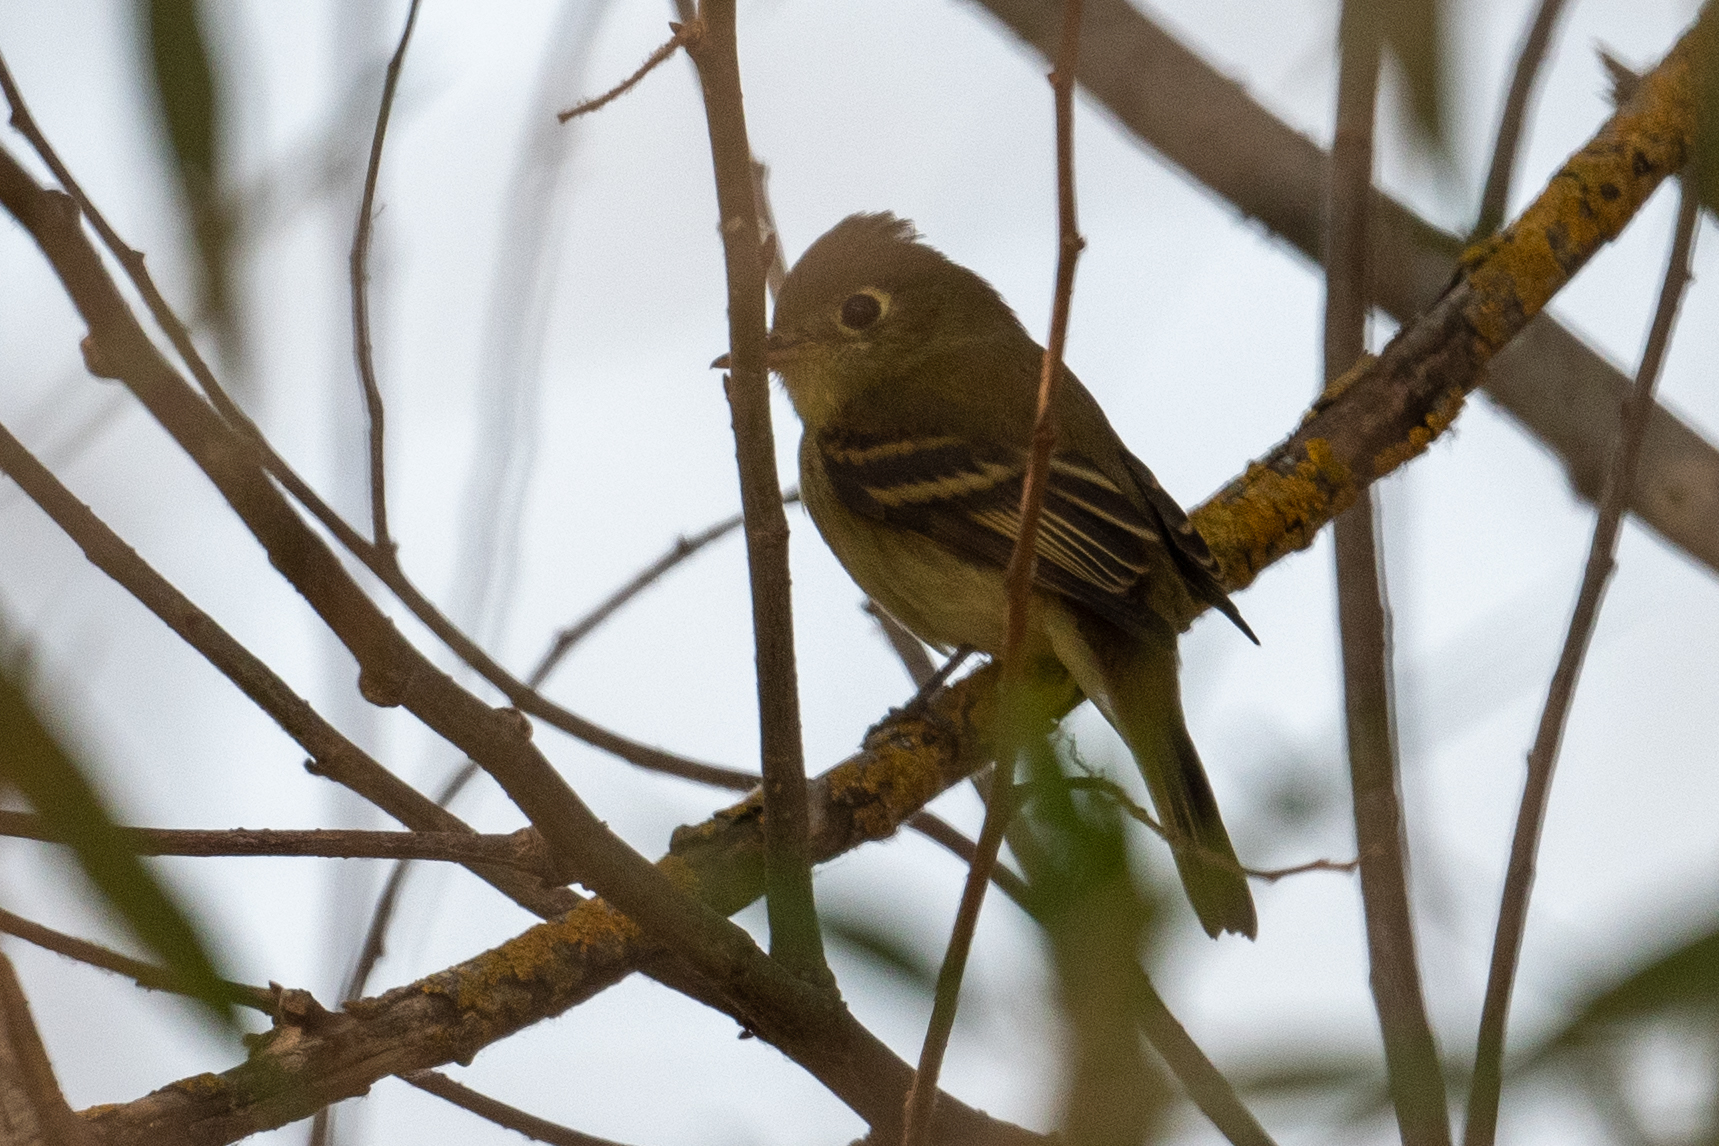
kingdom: Animalia
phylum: Chordata
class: Aves
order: Passeriformes
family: Tyrannidae
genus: Empidonax
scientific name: Empidonax difficilis
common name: Pacific-slope flycatcher
